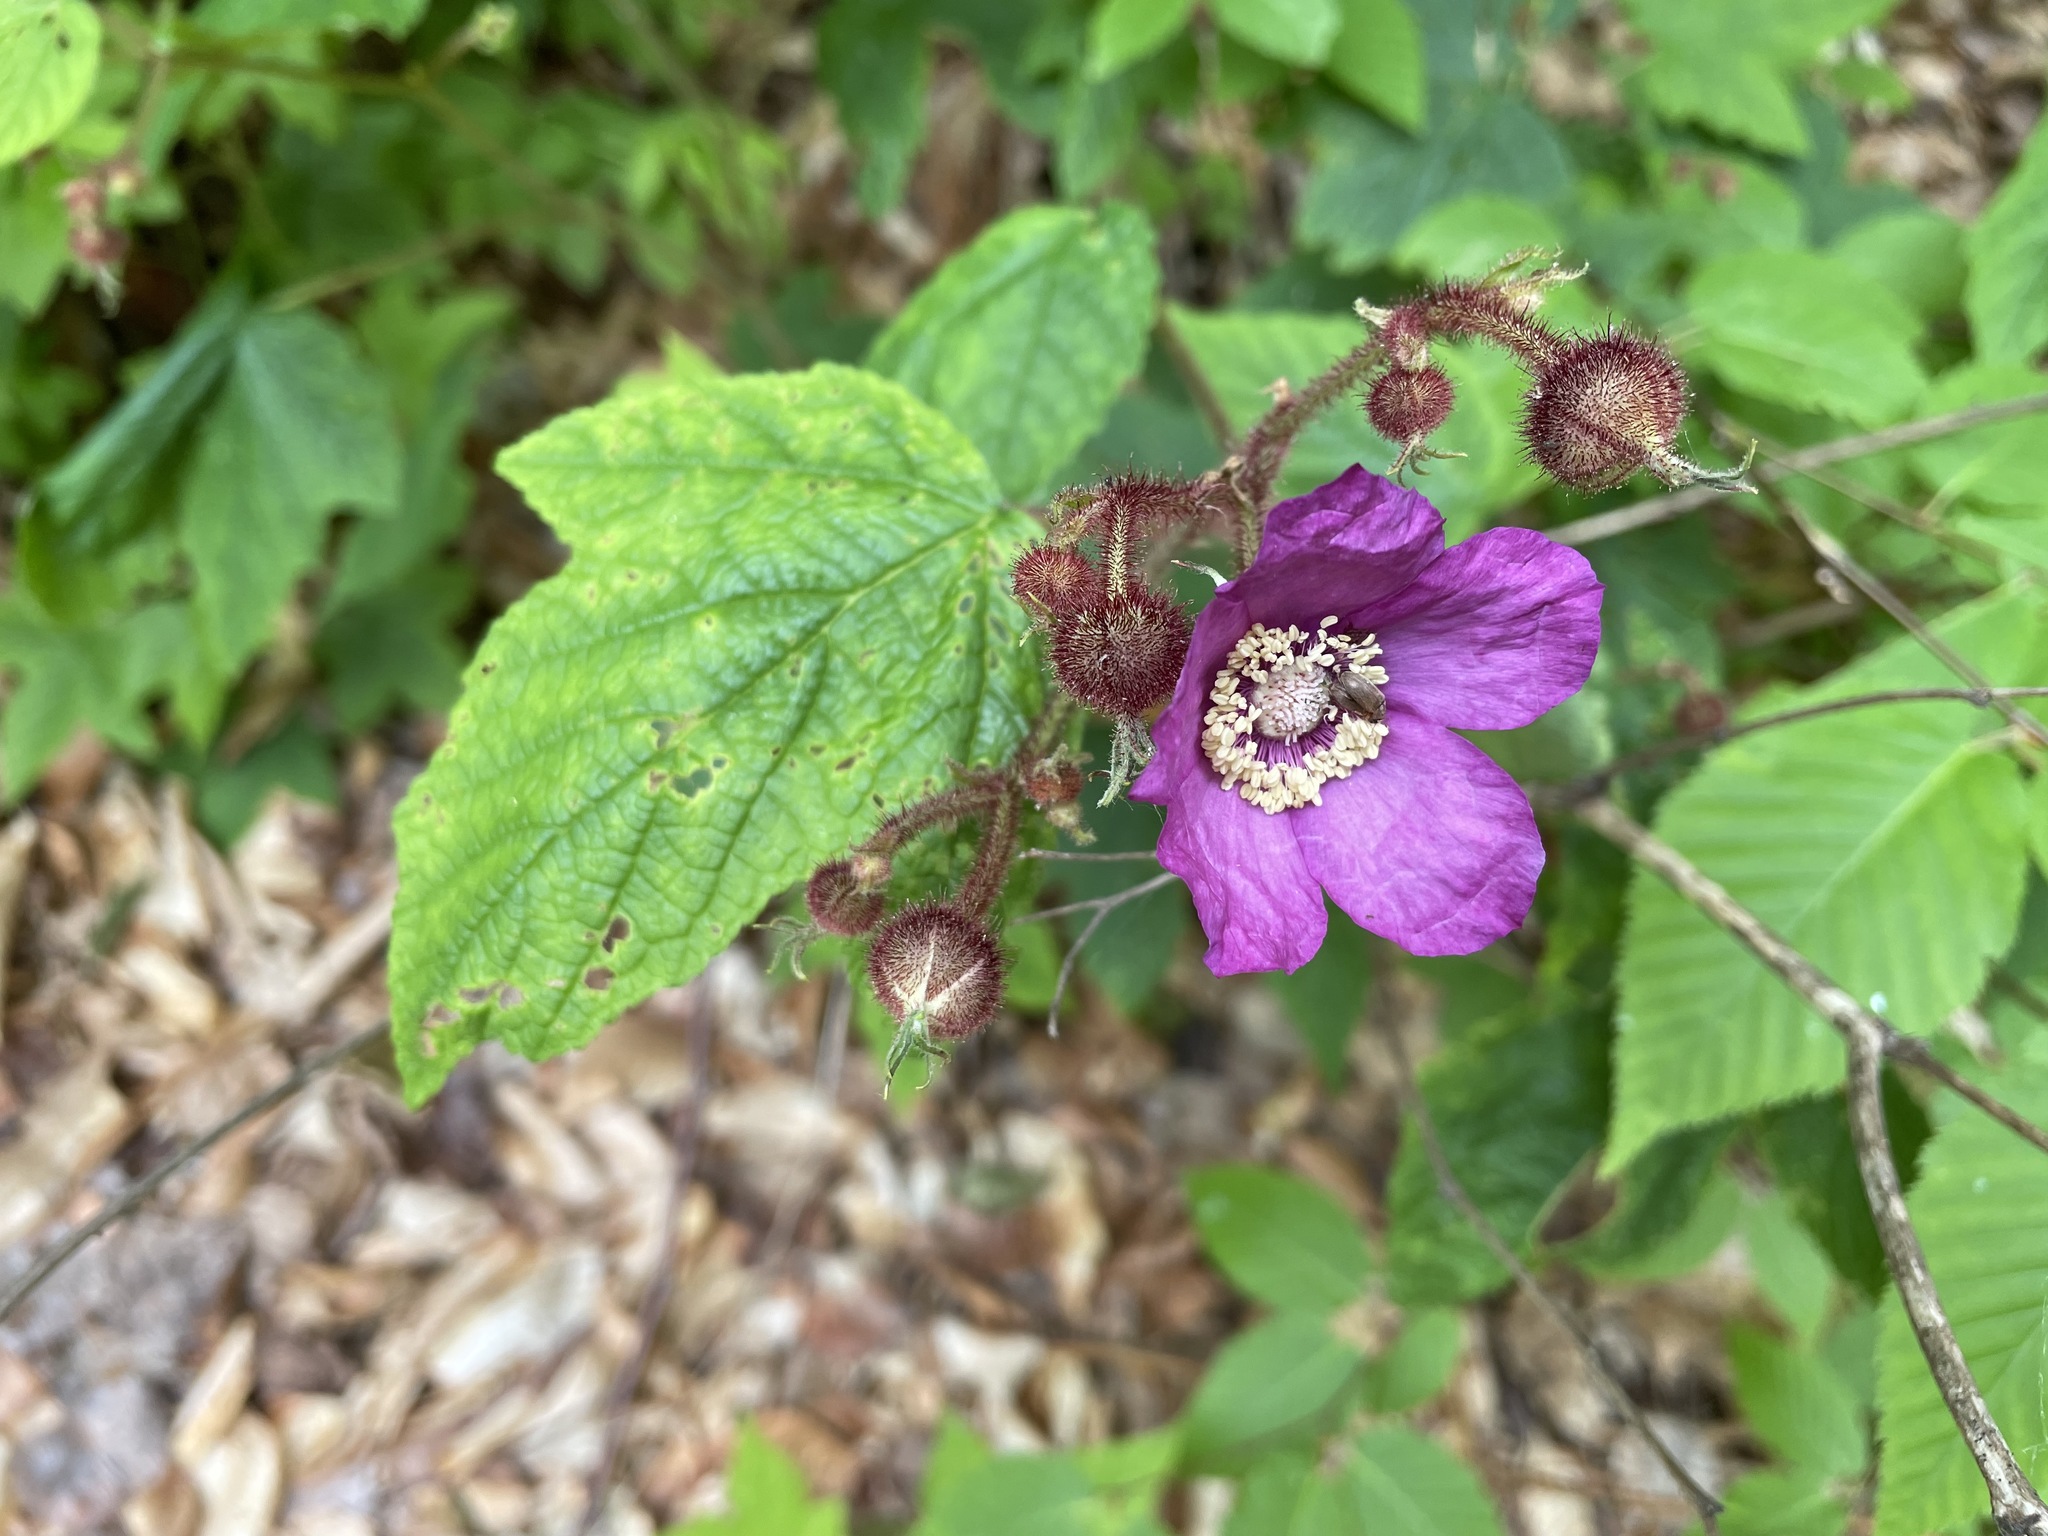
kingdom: Plantae
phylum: Tracheophyta
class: Magnoliopsida
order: Rosales
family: Rosaceae
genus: Rubus
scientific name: Rubus odoratus
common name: Purple-flowered raspberry
